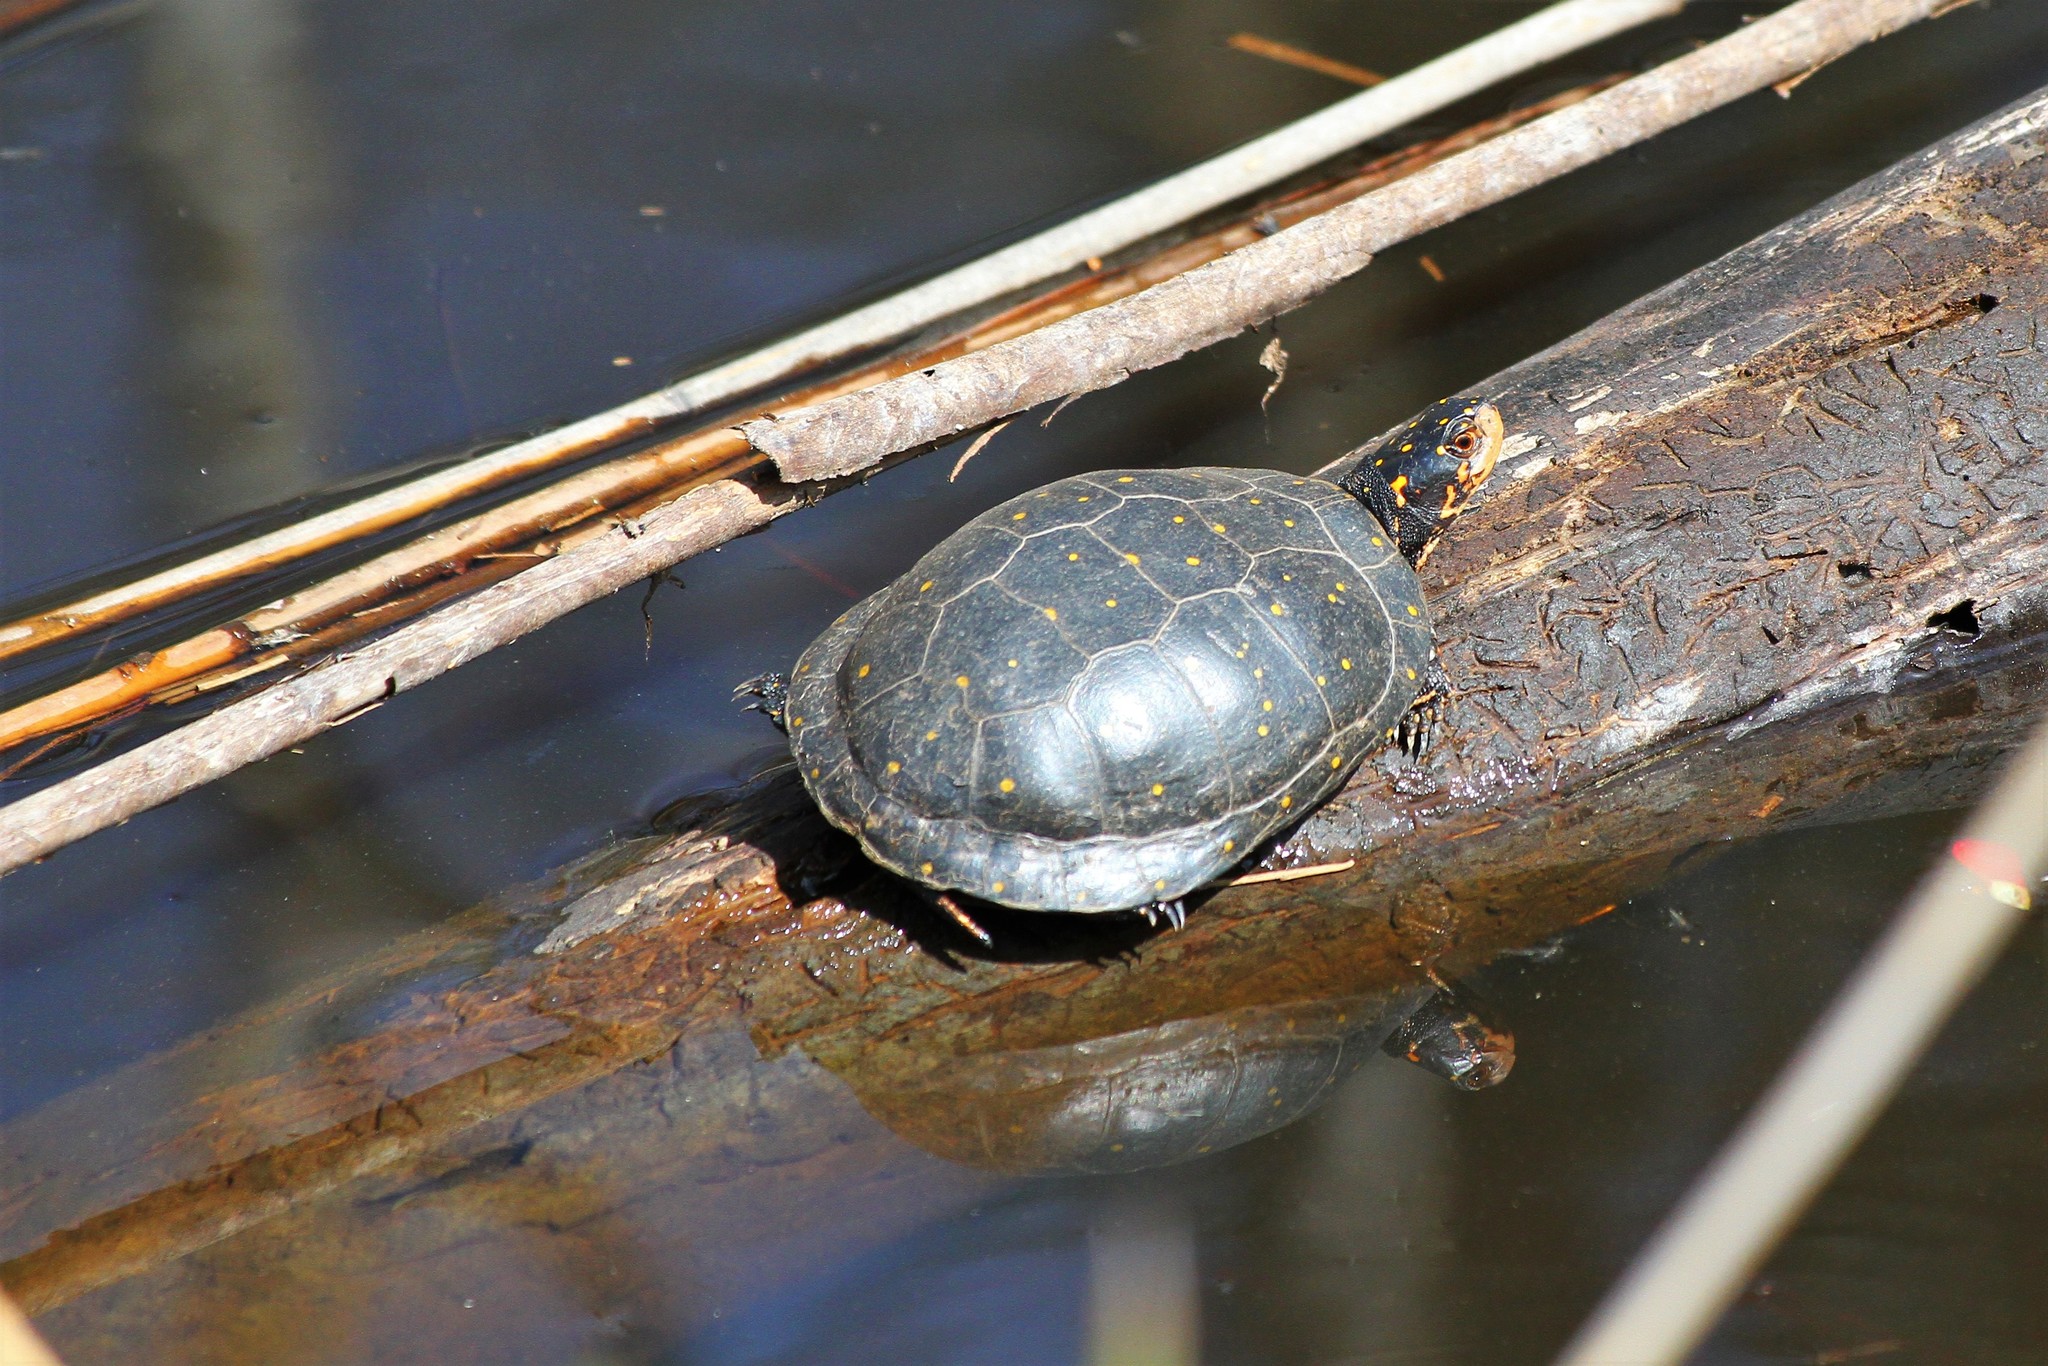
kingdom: Animalia
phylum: Chordata
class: Testudines
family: Emydidae
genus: Clemmys
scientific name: Clemmys guttata
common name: Spotted turtle
